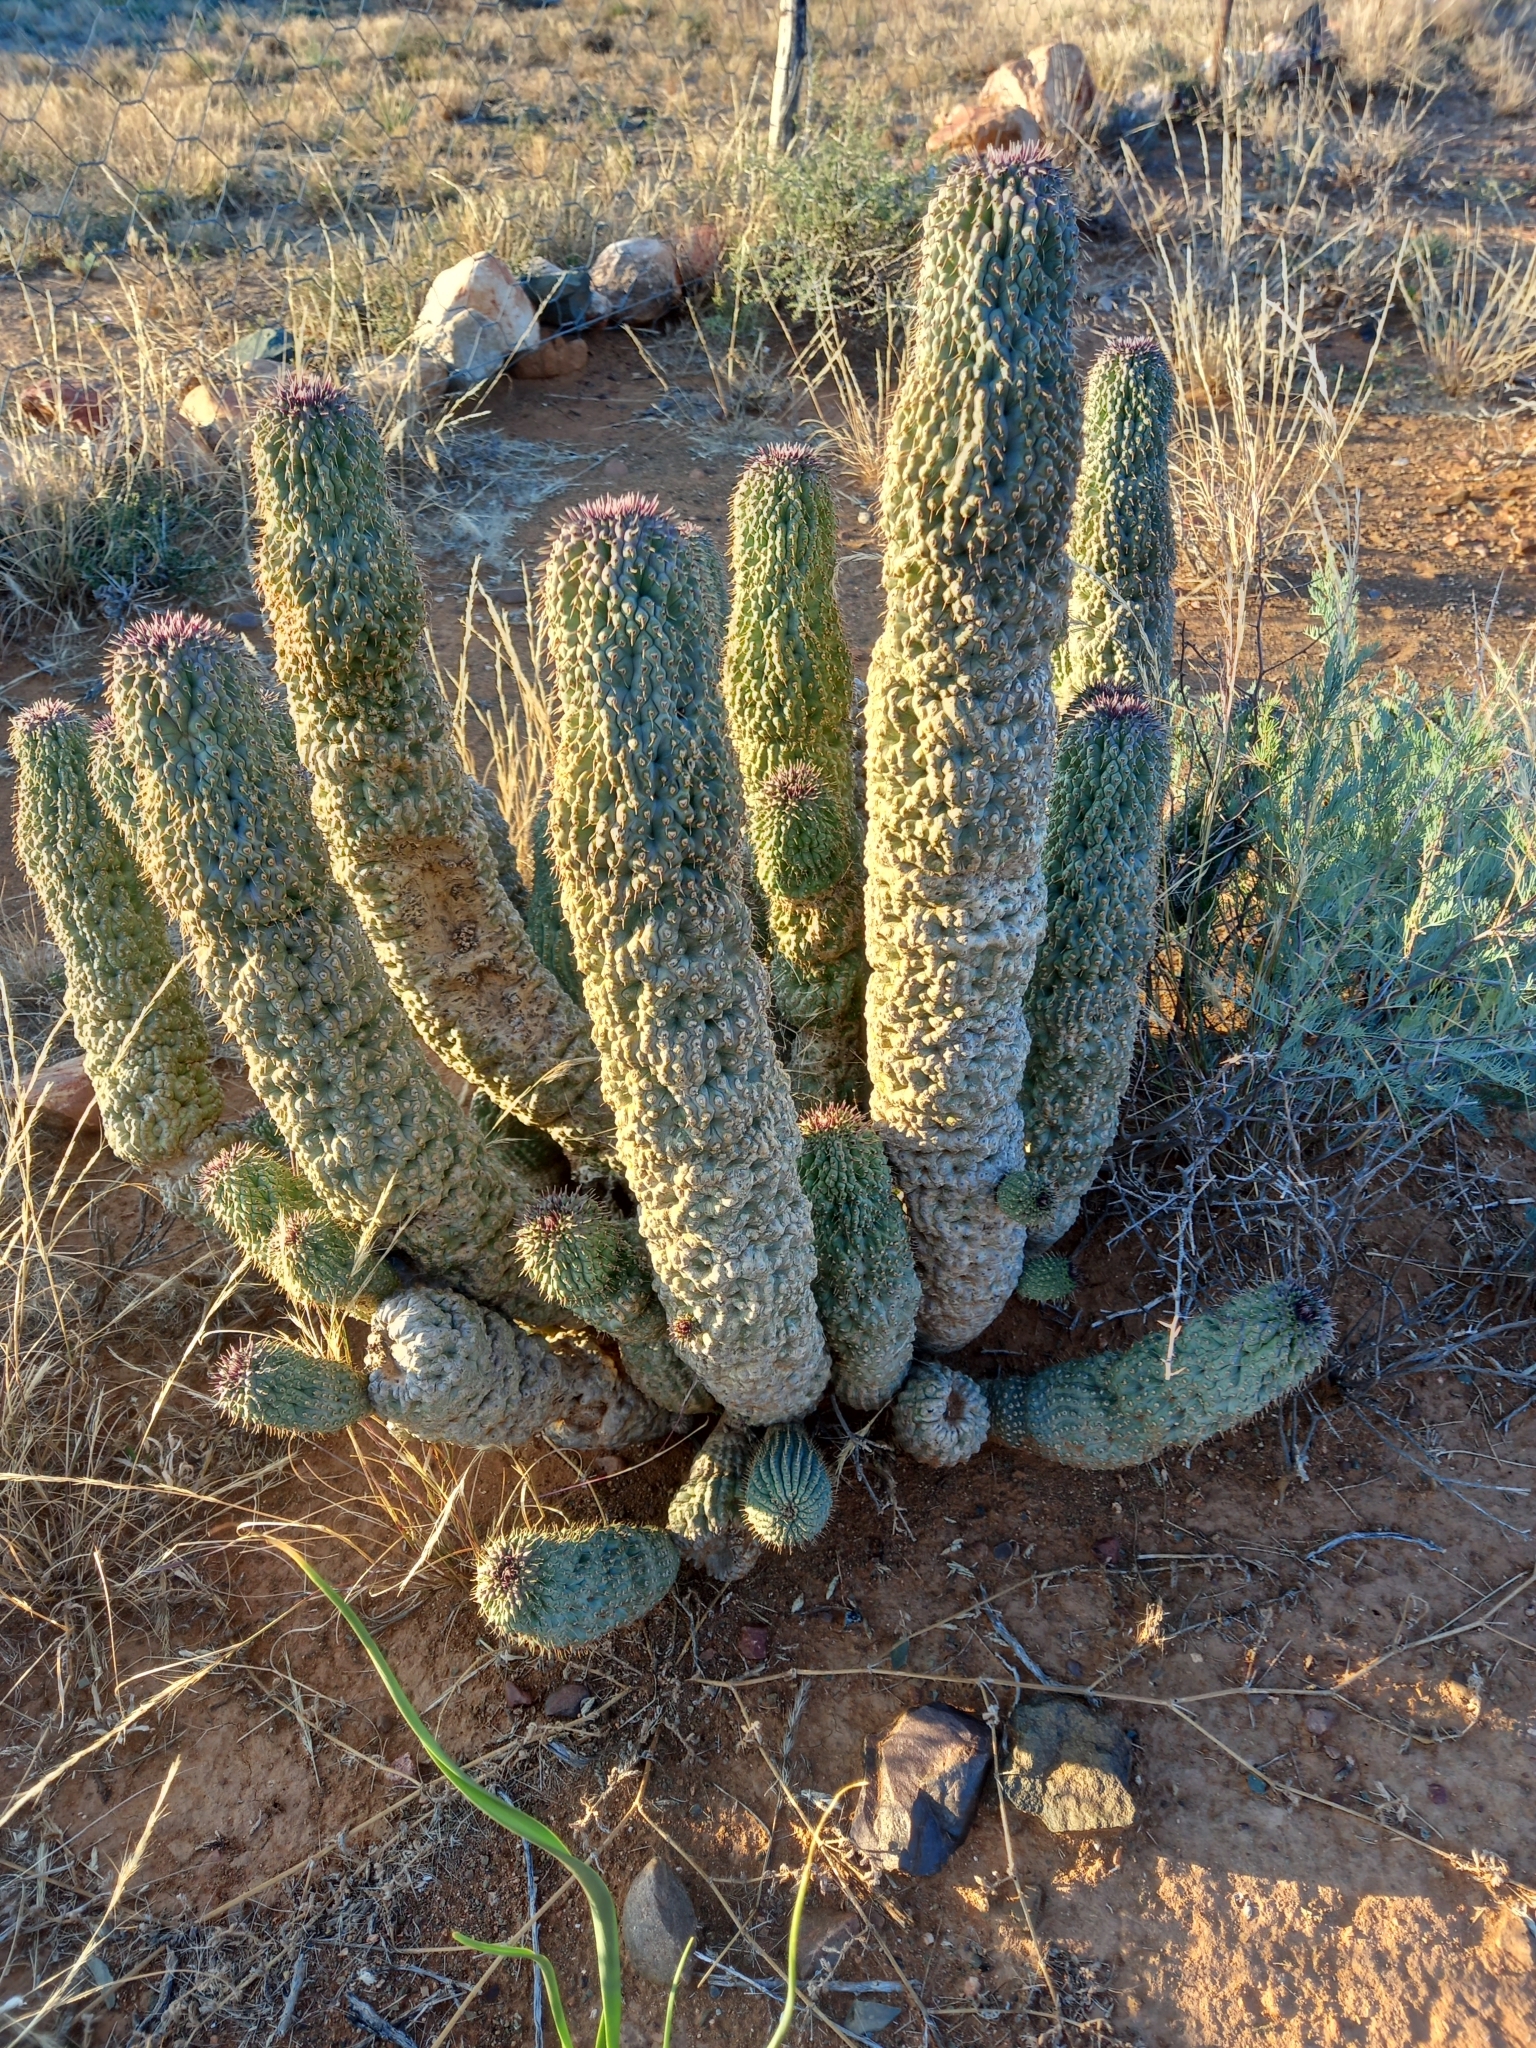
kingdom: Plantae
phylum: Tracheophyta
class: Magnoliopsida
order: Gentianales
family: Apocynaceae
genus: Ceropegia
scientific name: Ceropegia pilifera
